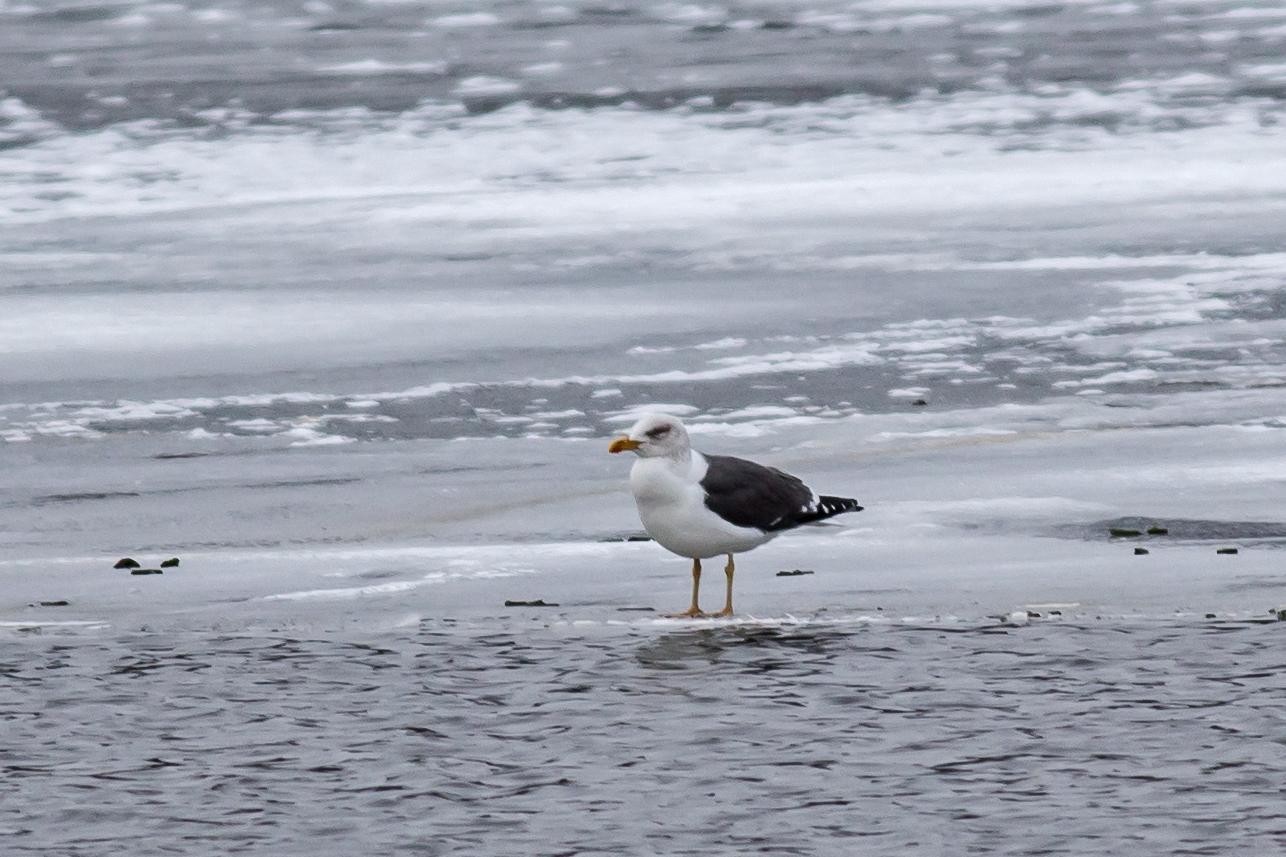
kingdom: Animalia
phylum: Chordata
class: Aves
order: Charadriiformes
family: Laridae
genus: Larus
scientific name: Larus fuscus
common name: Lesser black-backed gull
